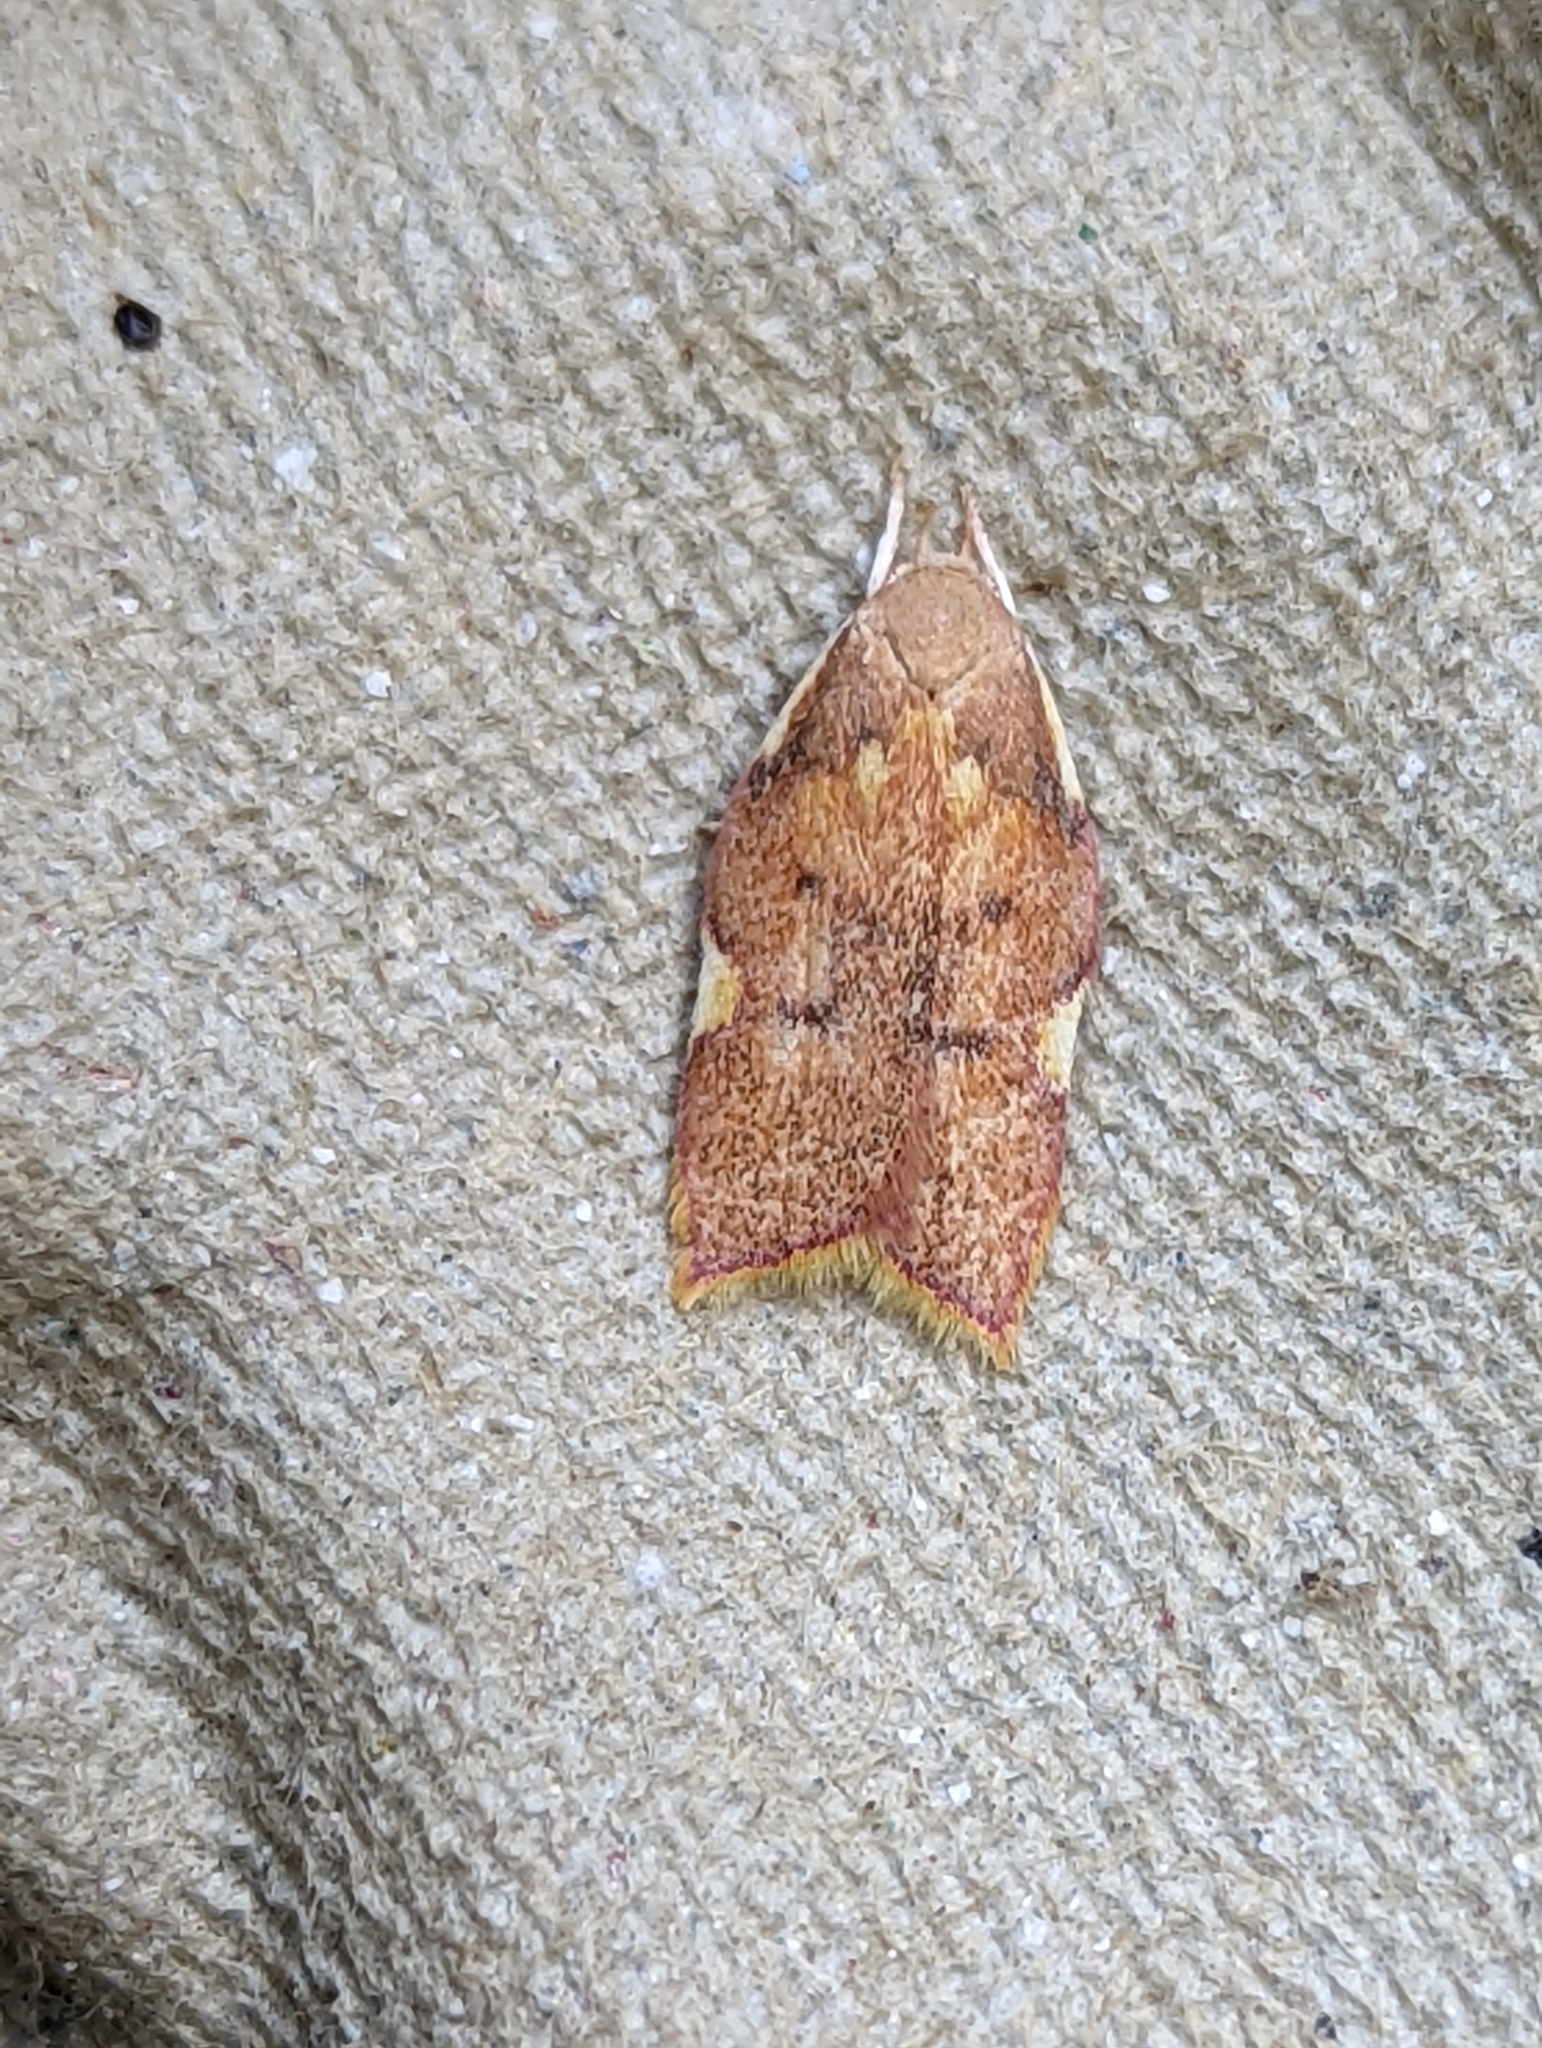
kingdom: Animalia
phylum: Arthropoda
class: Insecta
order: Lepidoptera
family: Peleopodidae
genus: Carcina
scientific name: Carcina quercana
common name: Moth
